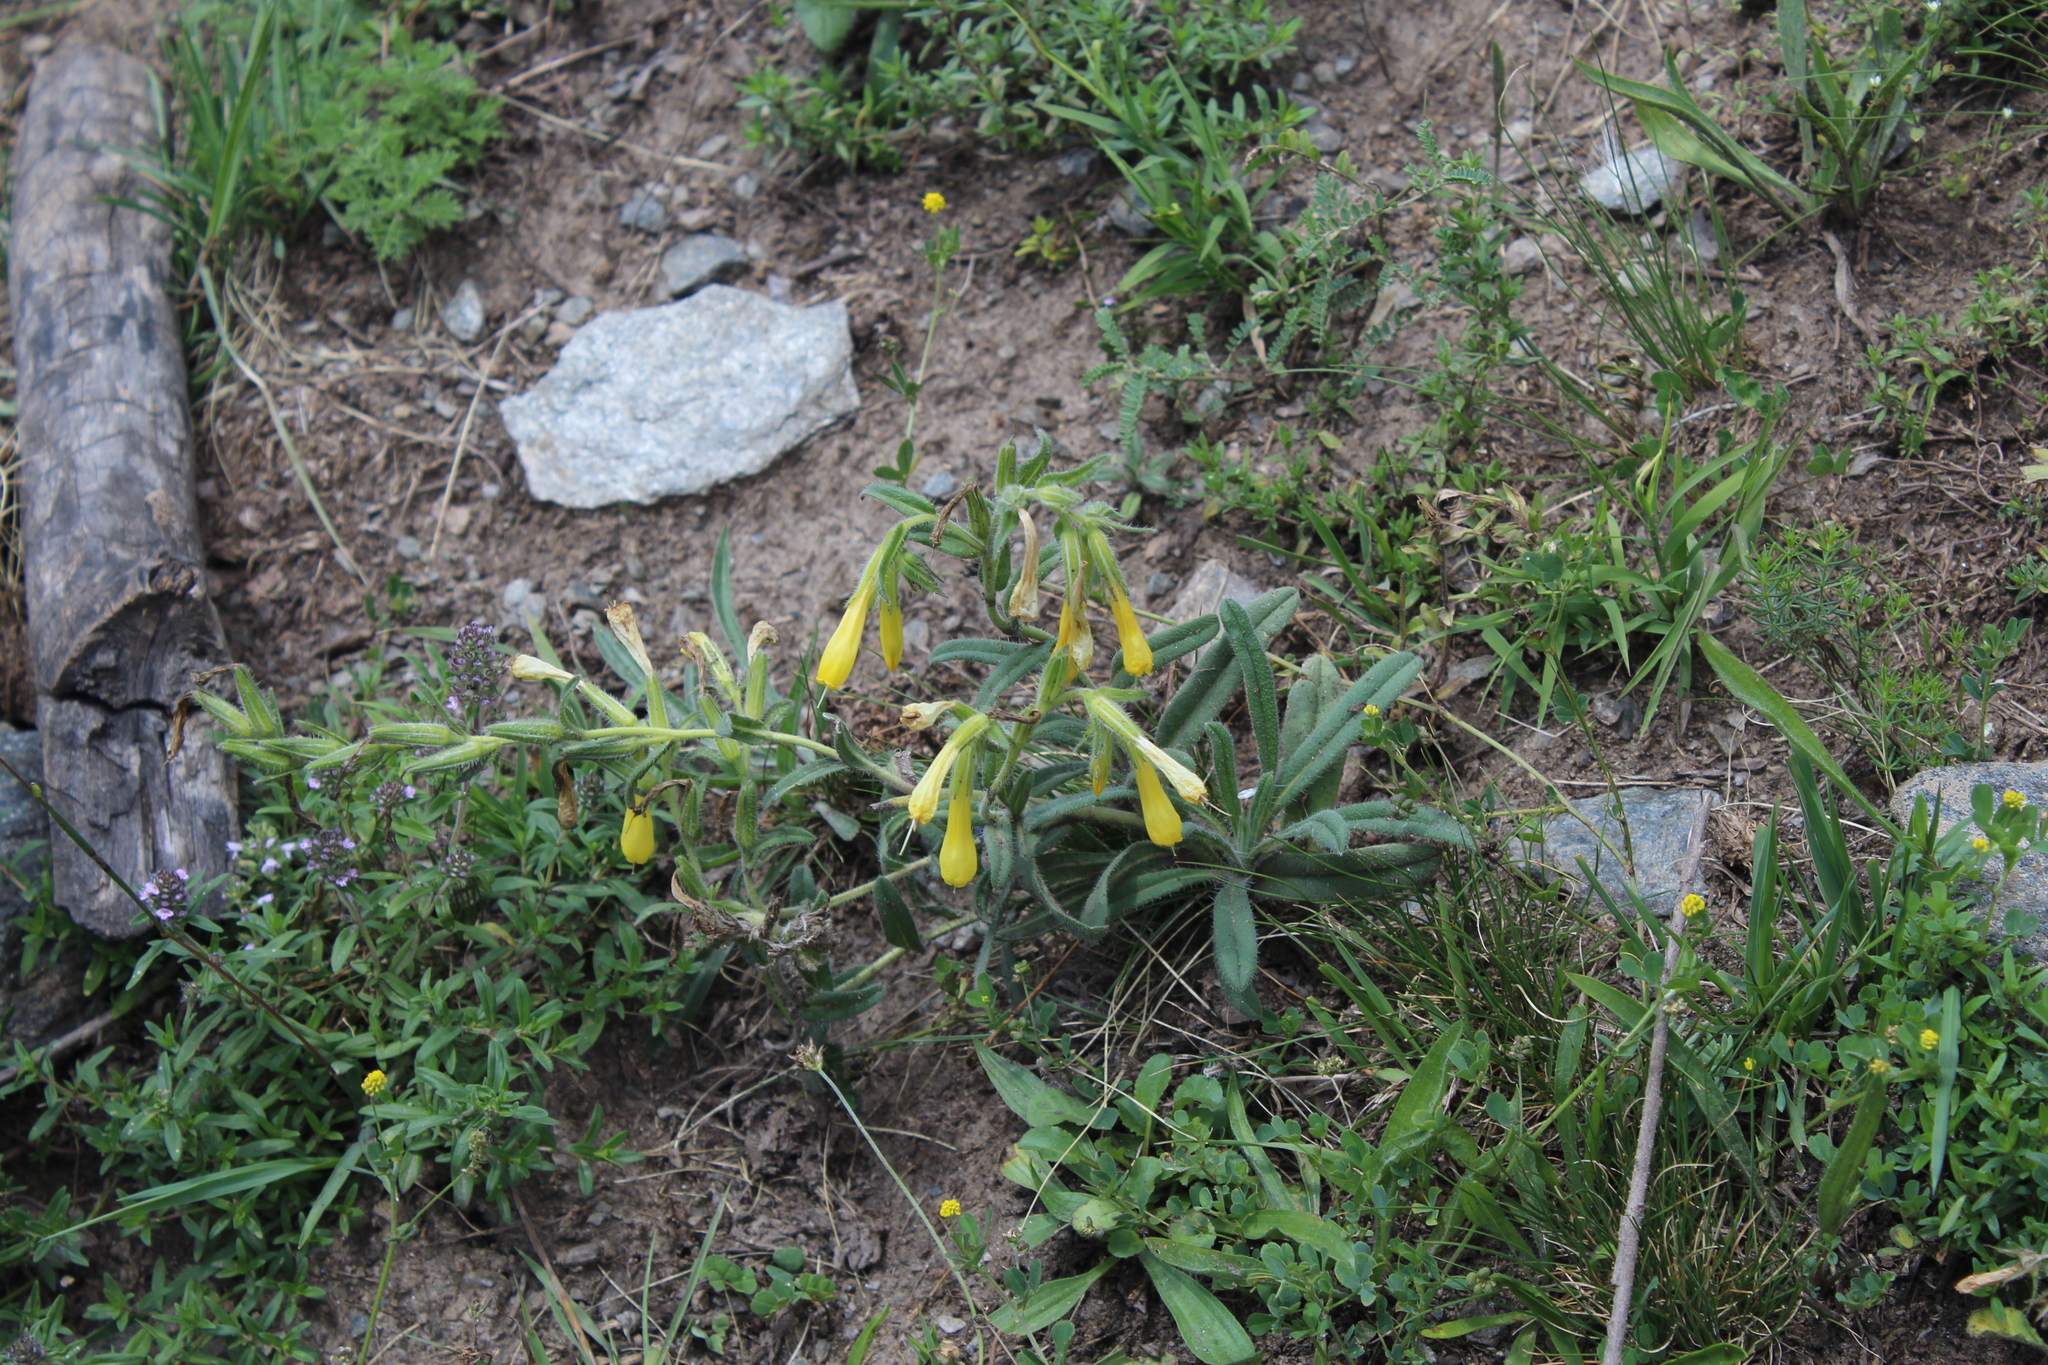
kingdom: Plantae
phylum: Tracheophyta
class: Magnoliopsida
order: Boraginales
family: Boraginaceae
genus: Onosma
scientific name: Onosma caucasica
